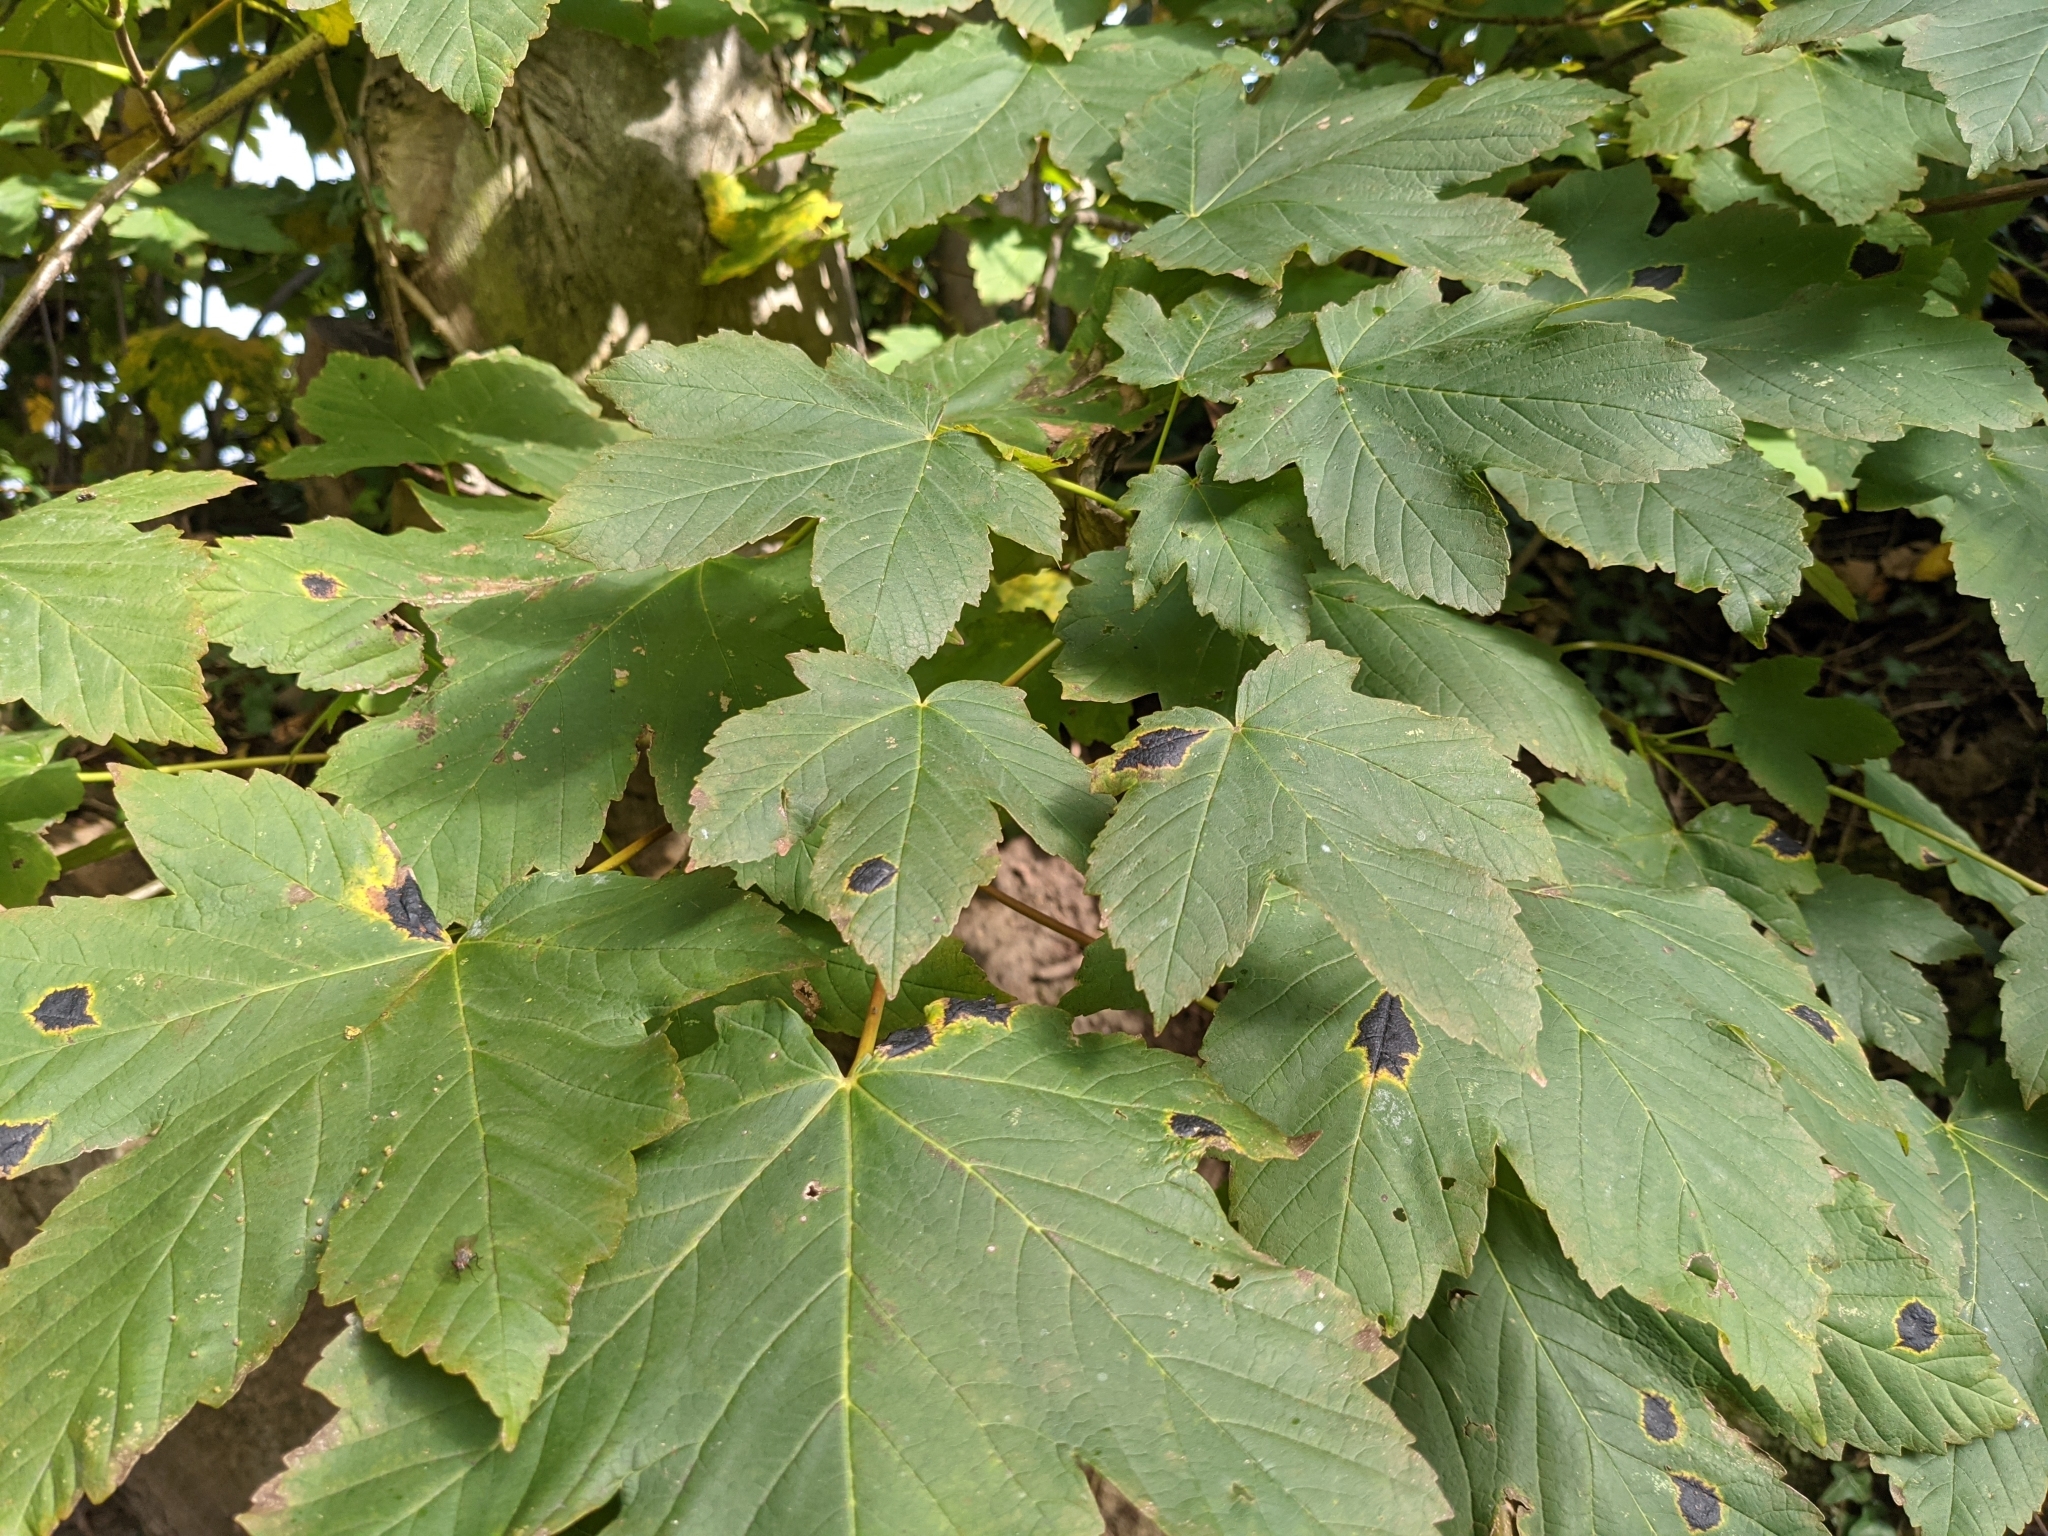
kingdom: Fungi
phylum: Ascomycota
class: Leotiomycetes
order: Rhytismatales
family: Rhytismataceae
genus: Rhytisma
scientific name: Rhytisma acerinum
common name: European tar spot
